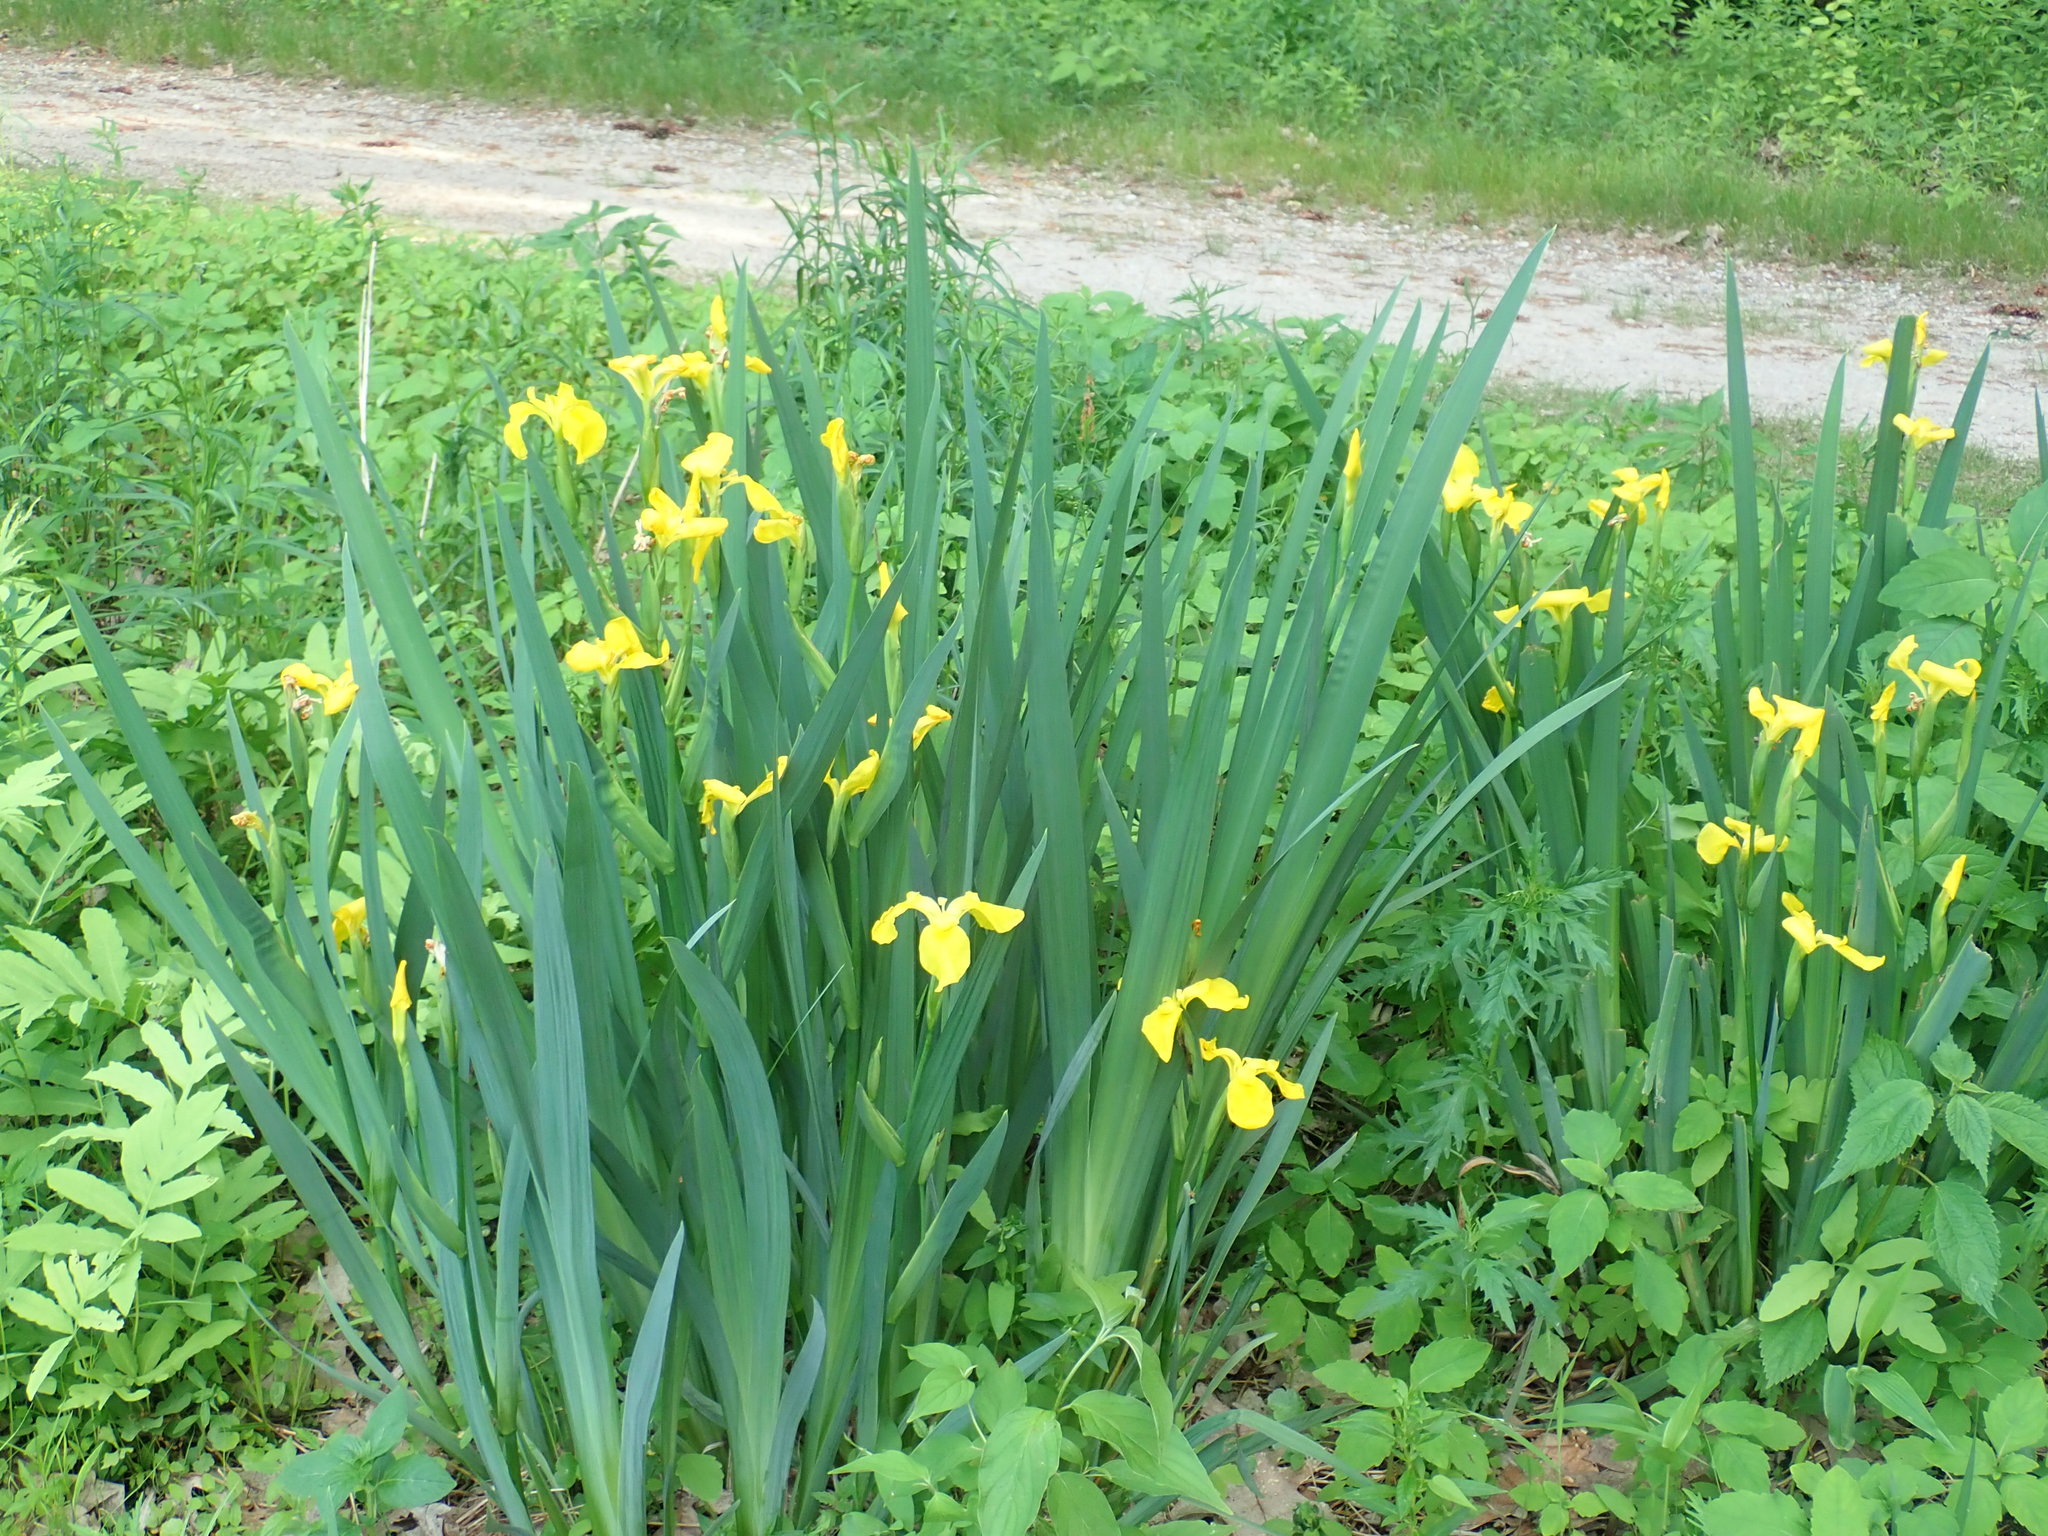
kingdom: Plantae
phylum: Tracheophyta
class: Liliopsida
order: Asparagales
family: Iridaceae
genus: Iris
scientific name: Iris pseudacorus
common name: Yellow flag
